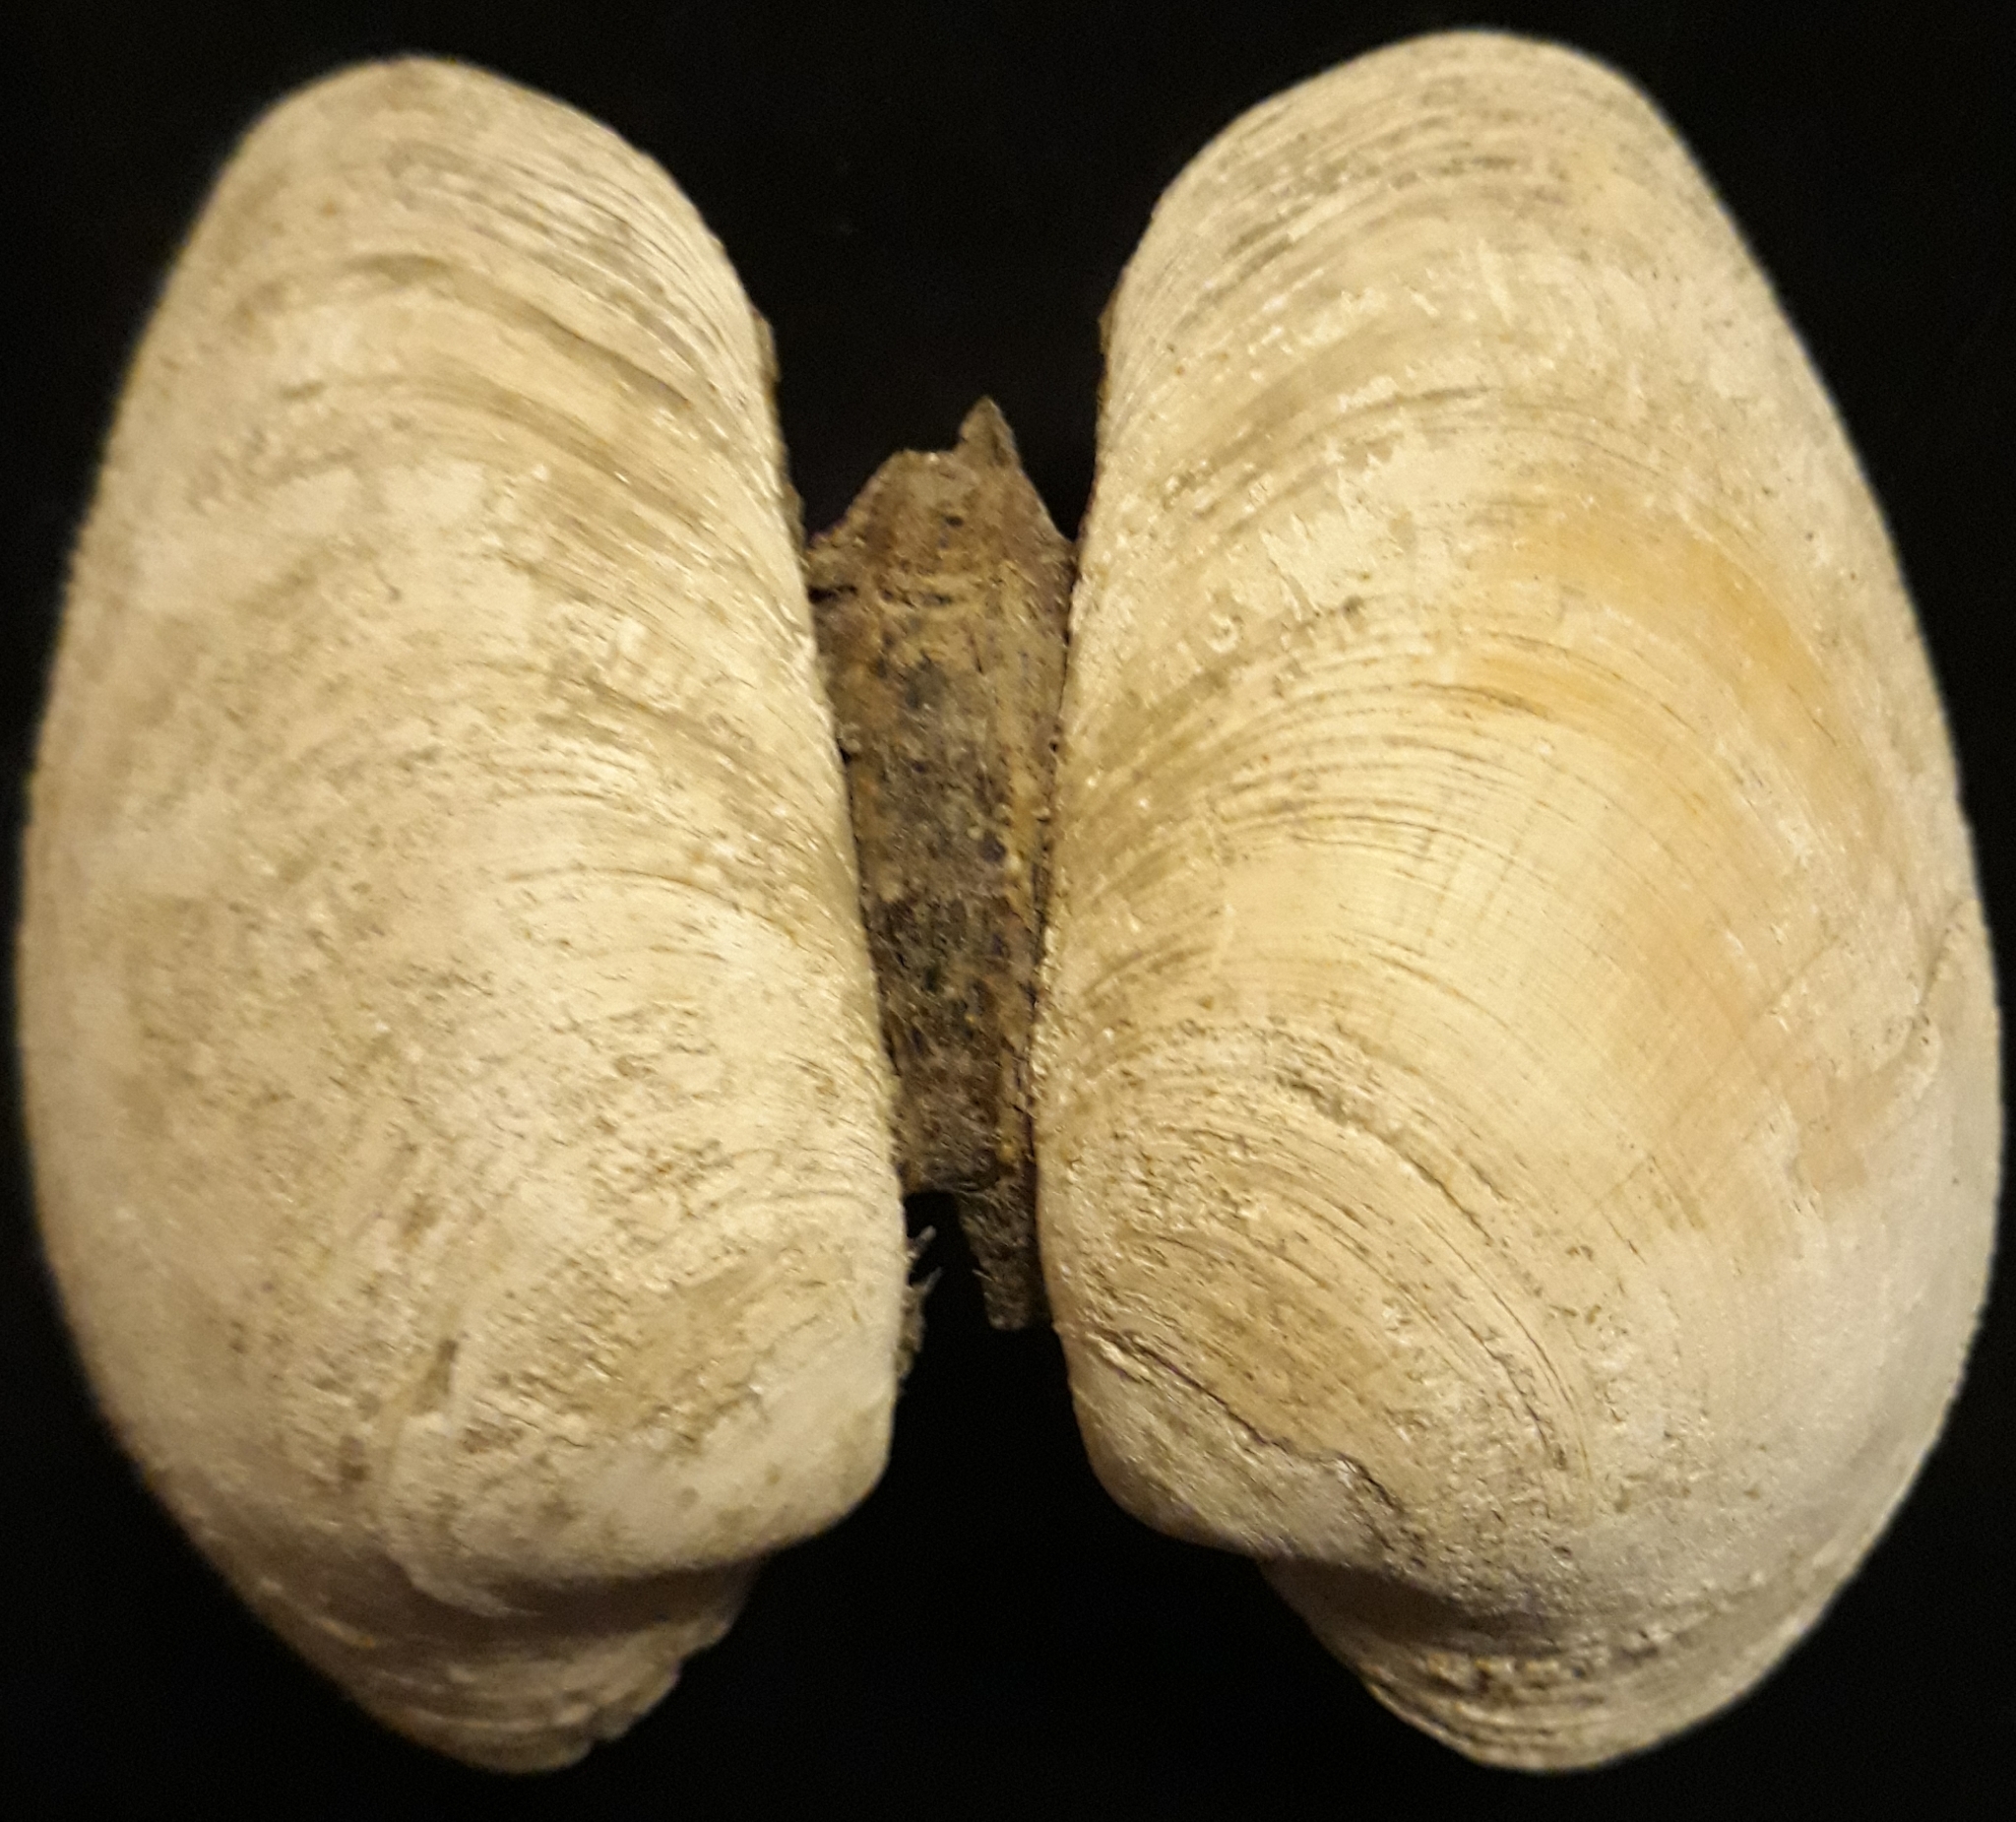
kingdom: Animalia
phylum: Mollusca
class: Bivalvia
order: Venerida
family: Veneridae
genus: Saxidomus
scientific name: Saxidomus gigantea
